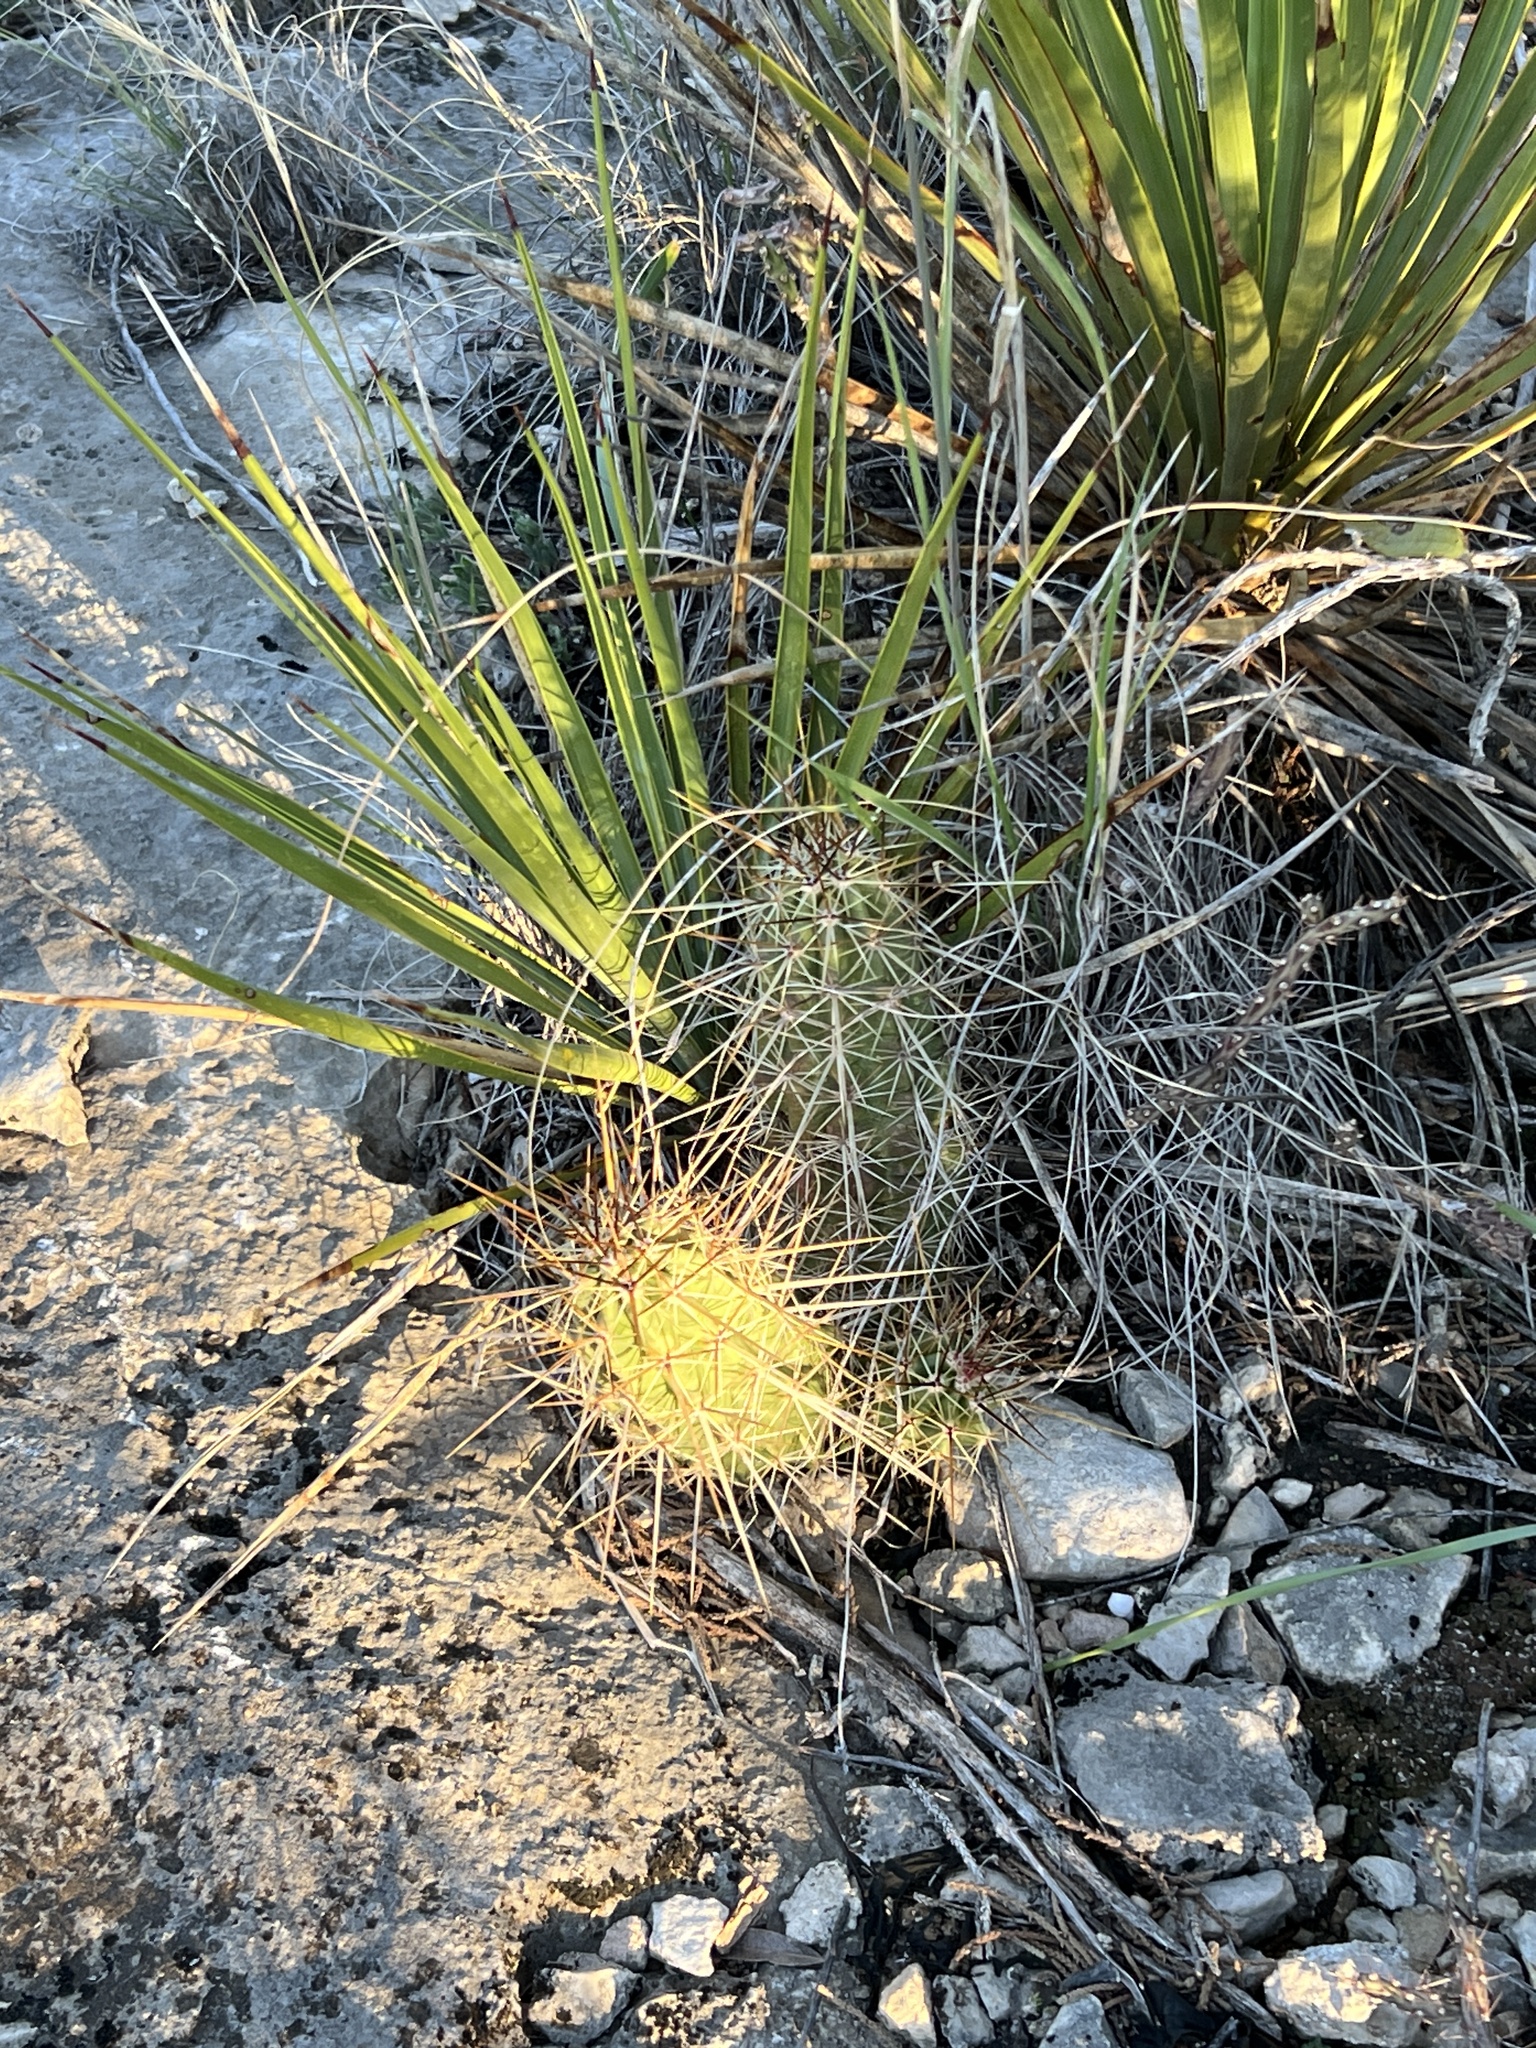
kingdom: Plantae
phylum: Tracheophyta
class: Magnoliopsida
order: Caryophyllales
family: Cactaceae
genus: Echinocereus
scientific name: Echinocereus enneacanthus
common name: Pitaya
